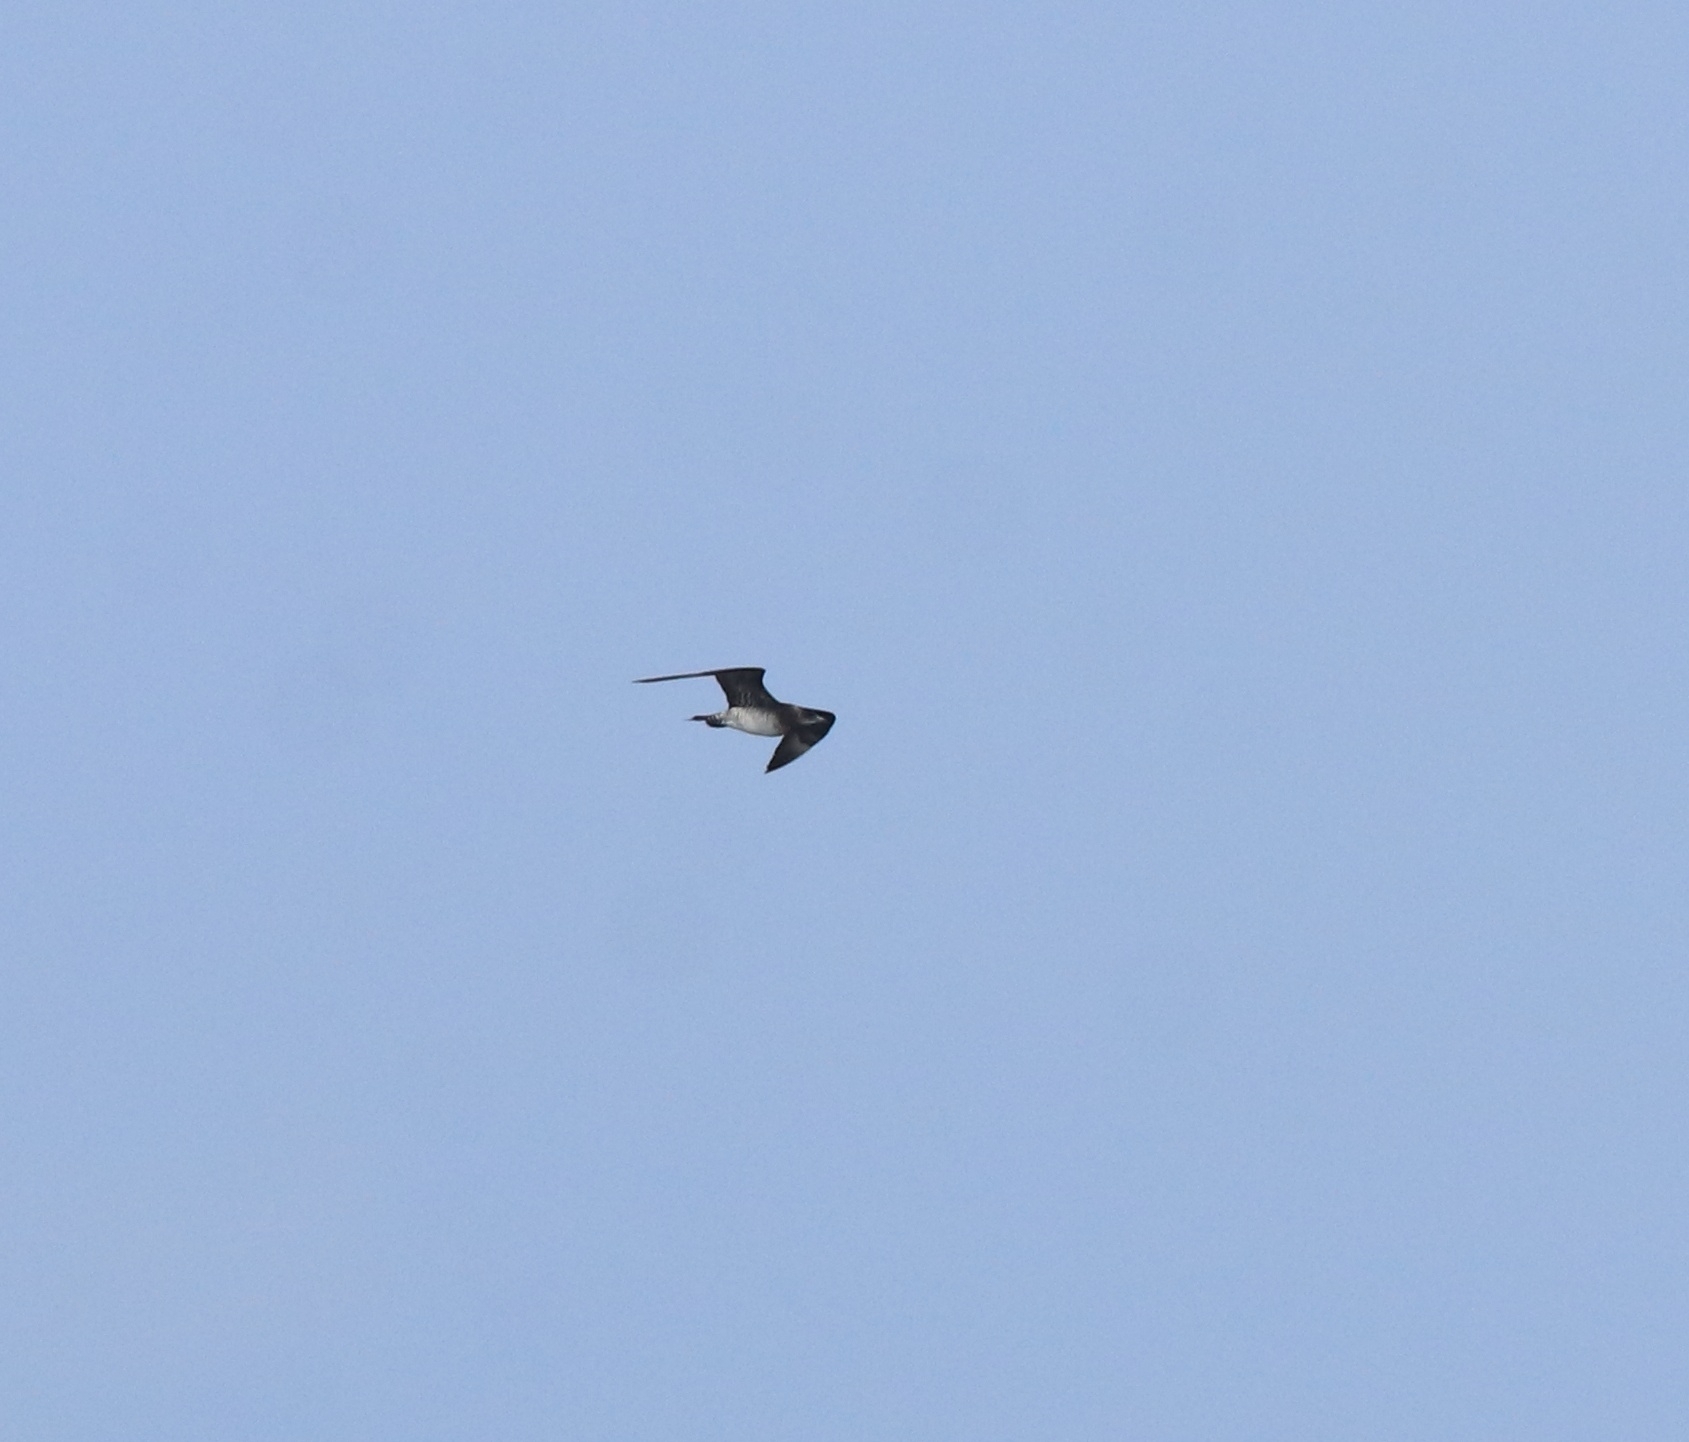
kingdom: Animalia
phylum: Chordata
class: Aves
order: Charadriiformes
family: Stercorariidae
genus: Stercorarius
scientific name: Stercorarius pomarinus
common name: Pomarine jaeger
